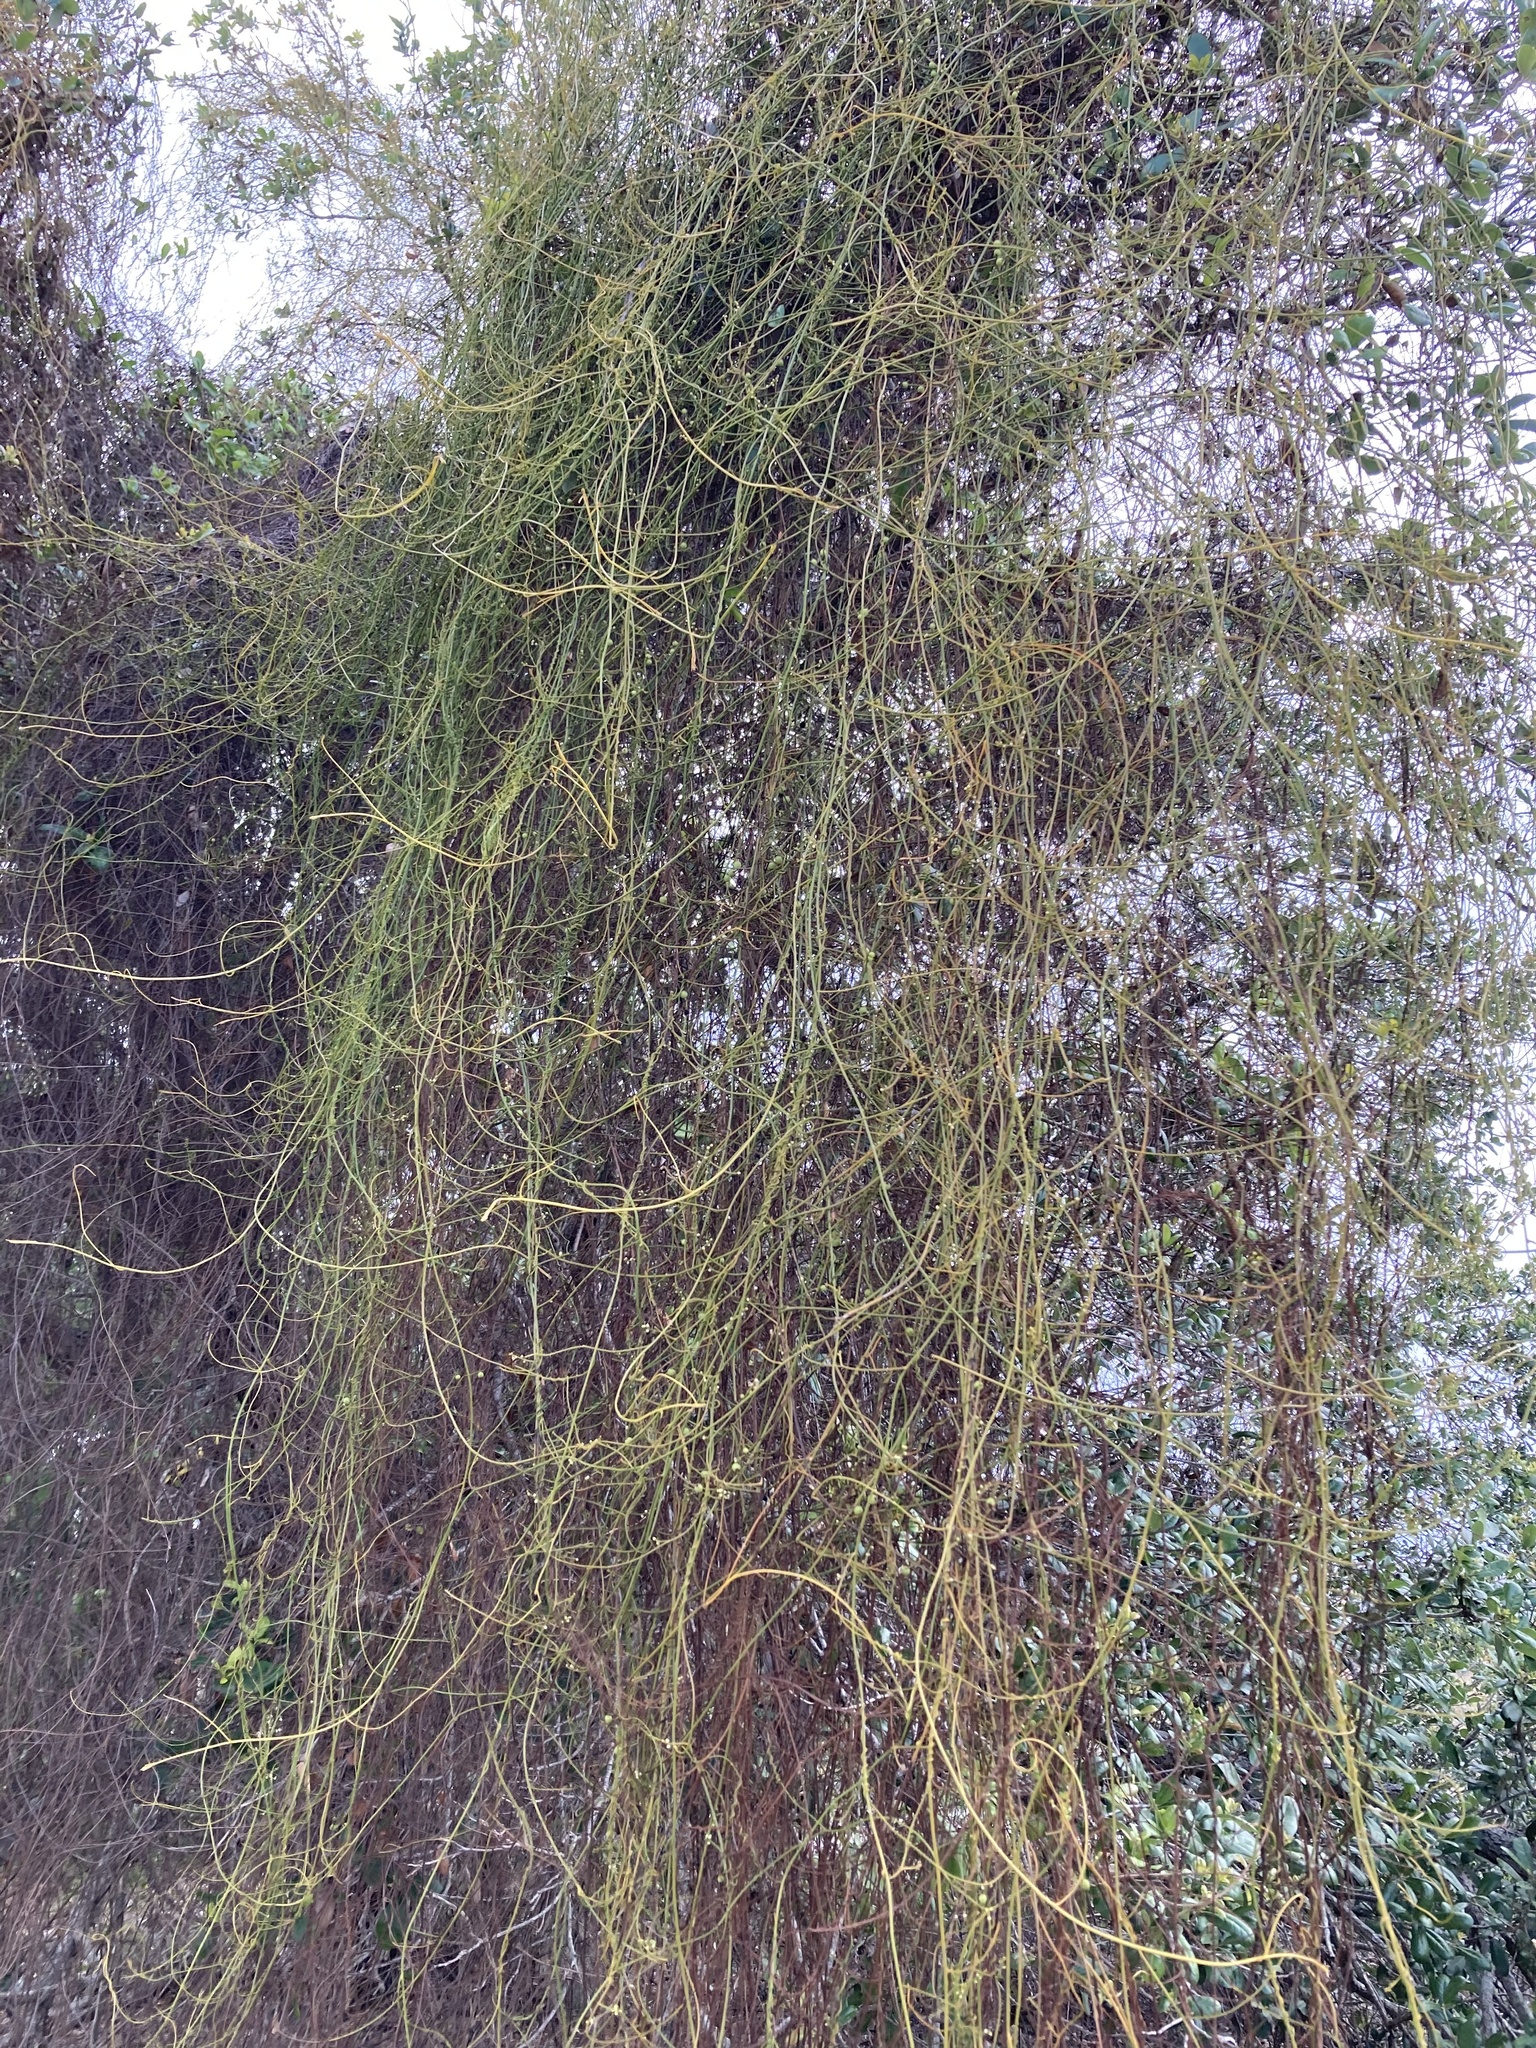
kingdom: Plantae
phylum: Tracheophyta
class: Magnoliopsida
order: Laurales
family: Lauraceae
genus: Cassytha
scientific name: Cassytha filiformis
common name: Dodder-laurel
